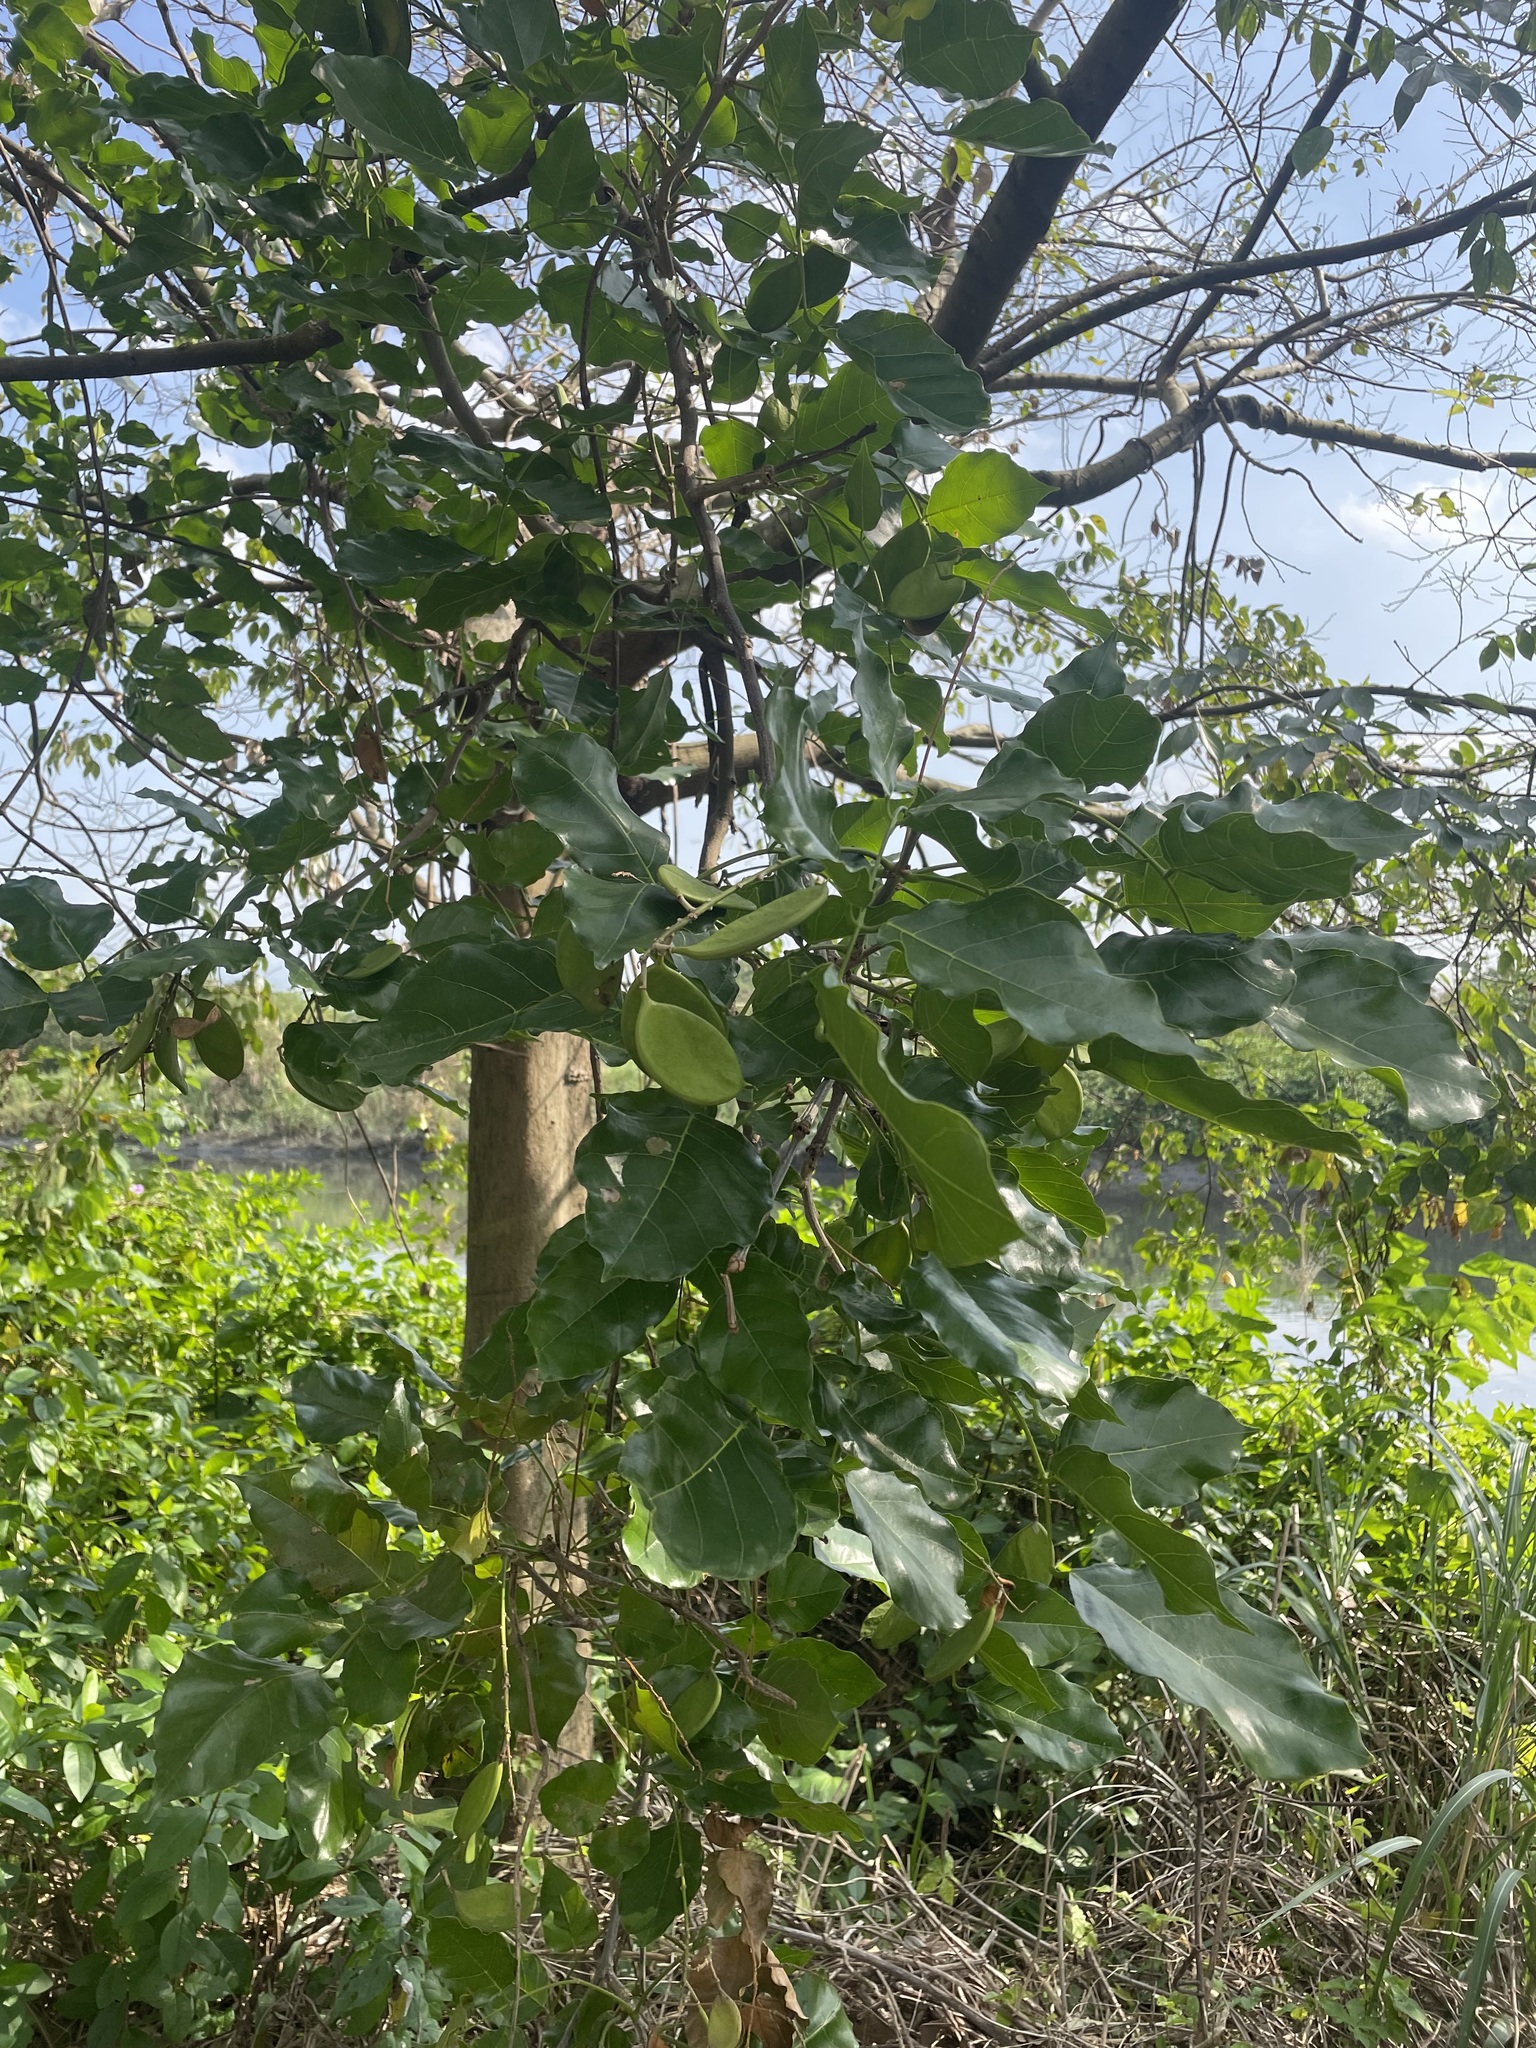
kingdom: Plantae
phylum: Tracheophyta
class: Magnoliopsida
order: Fabales
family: Fabaceae
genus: Pongamia
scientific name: Pongamia pinnata
